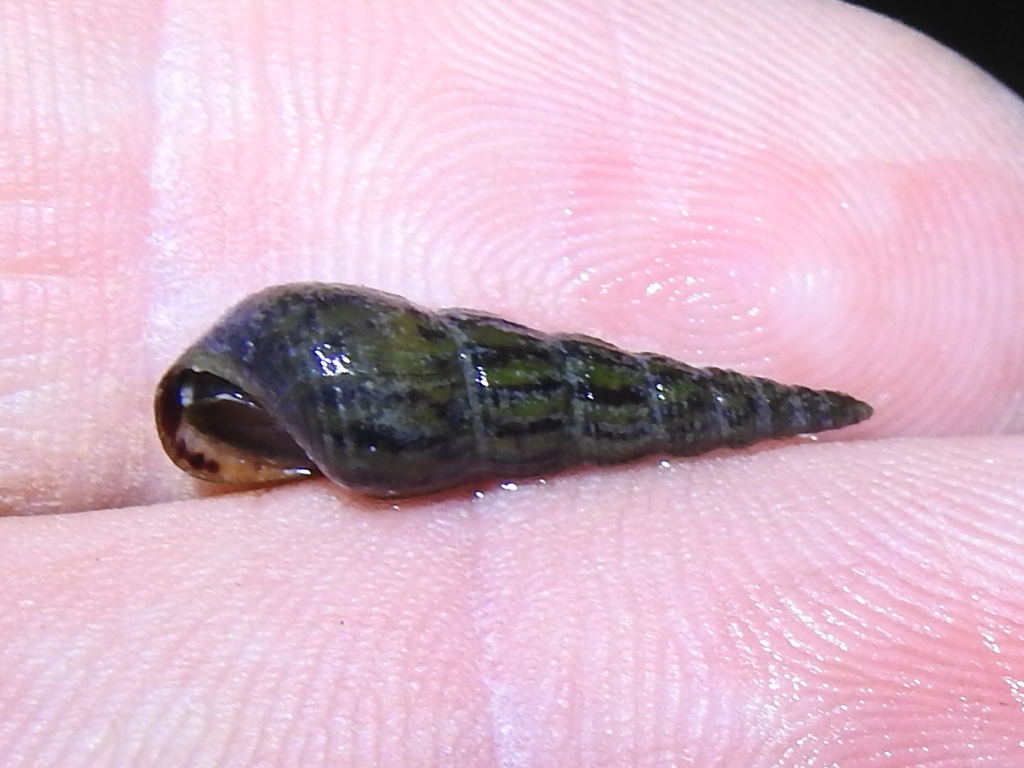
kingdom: Animalia
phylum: Mollusca
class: Gastropoda
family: Thiaridae
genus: Melanoides
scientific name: Melanoides tuberculata
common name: Red-rim melania
